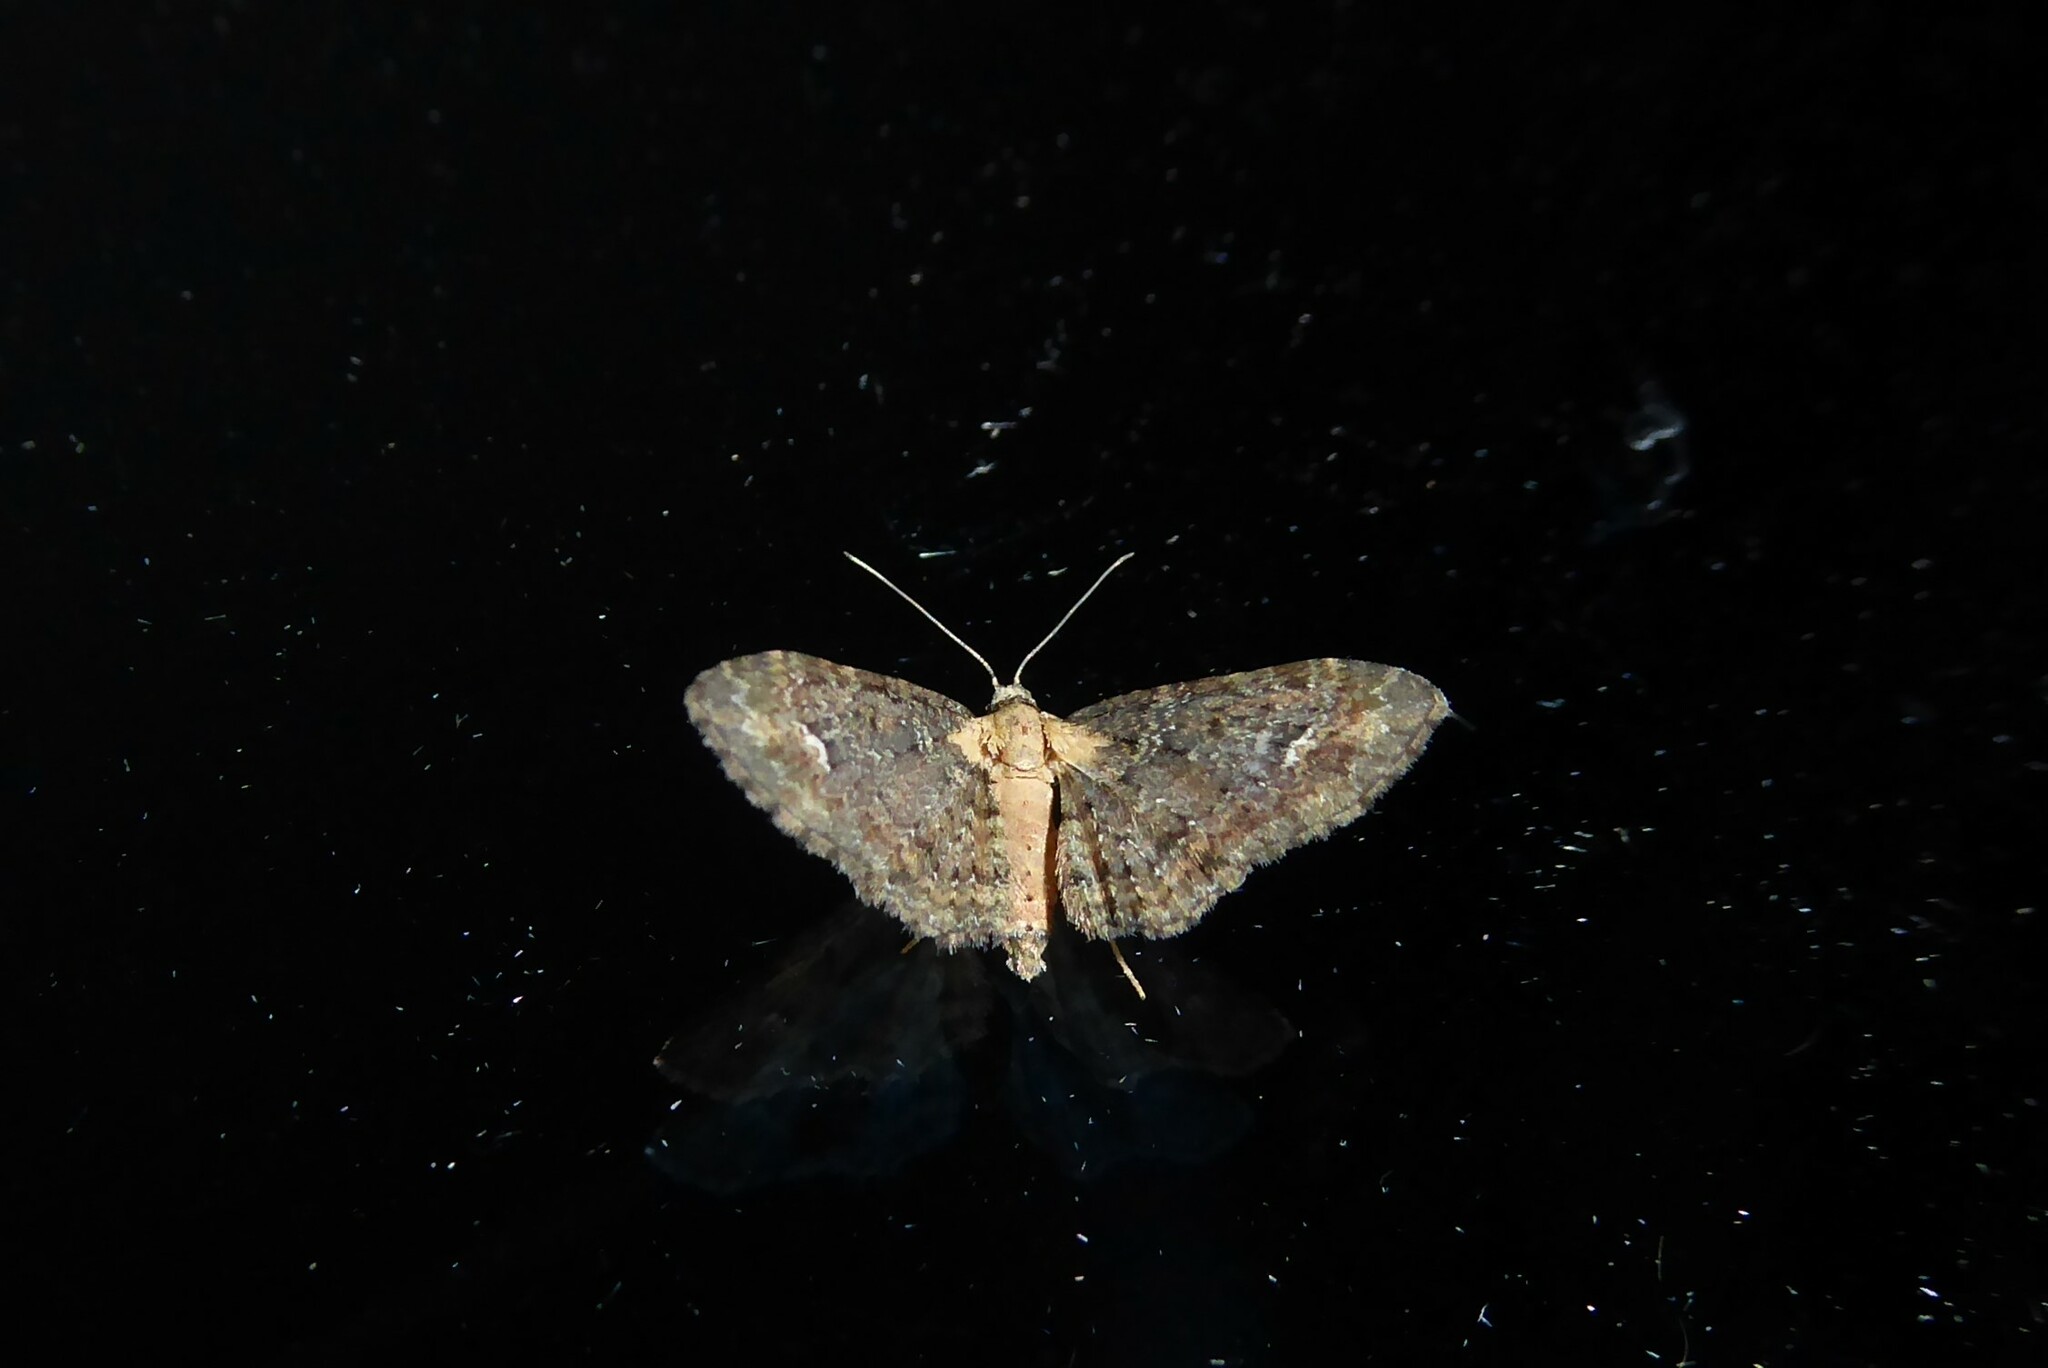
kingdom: Animalia
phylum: Arthropoda
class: Insecta
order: Lepidoptera
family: Geometridae
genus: Pasiphilodes
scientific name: Pasiphilodes testulata
